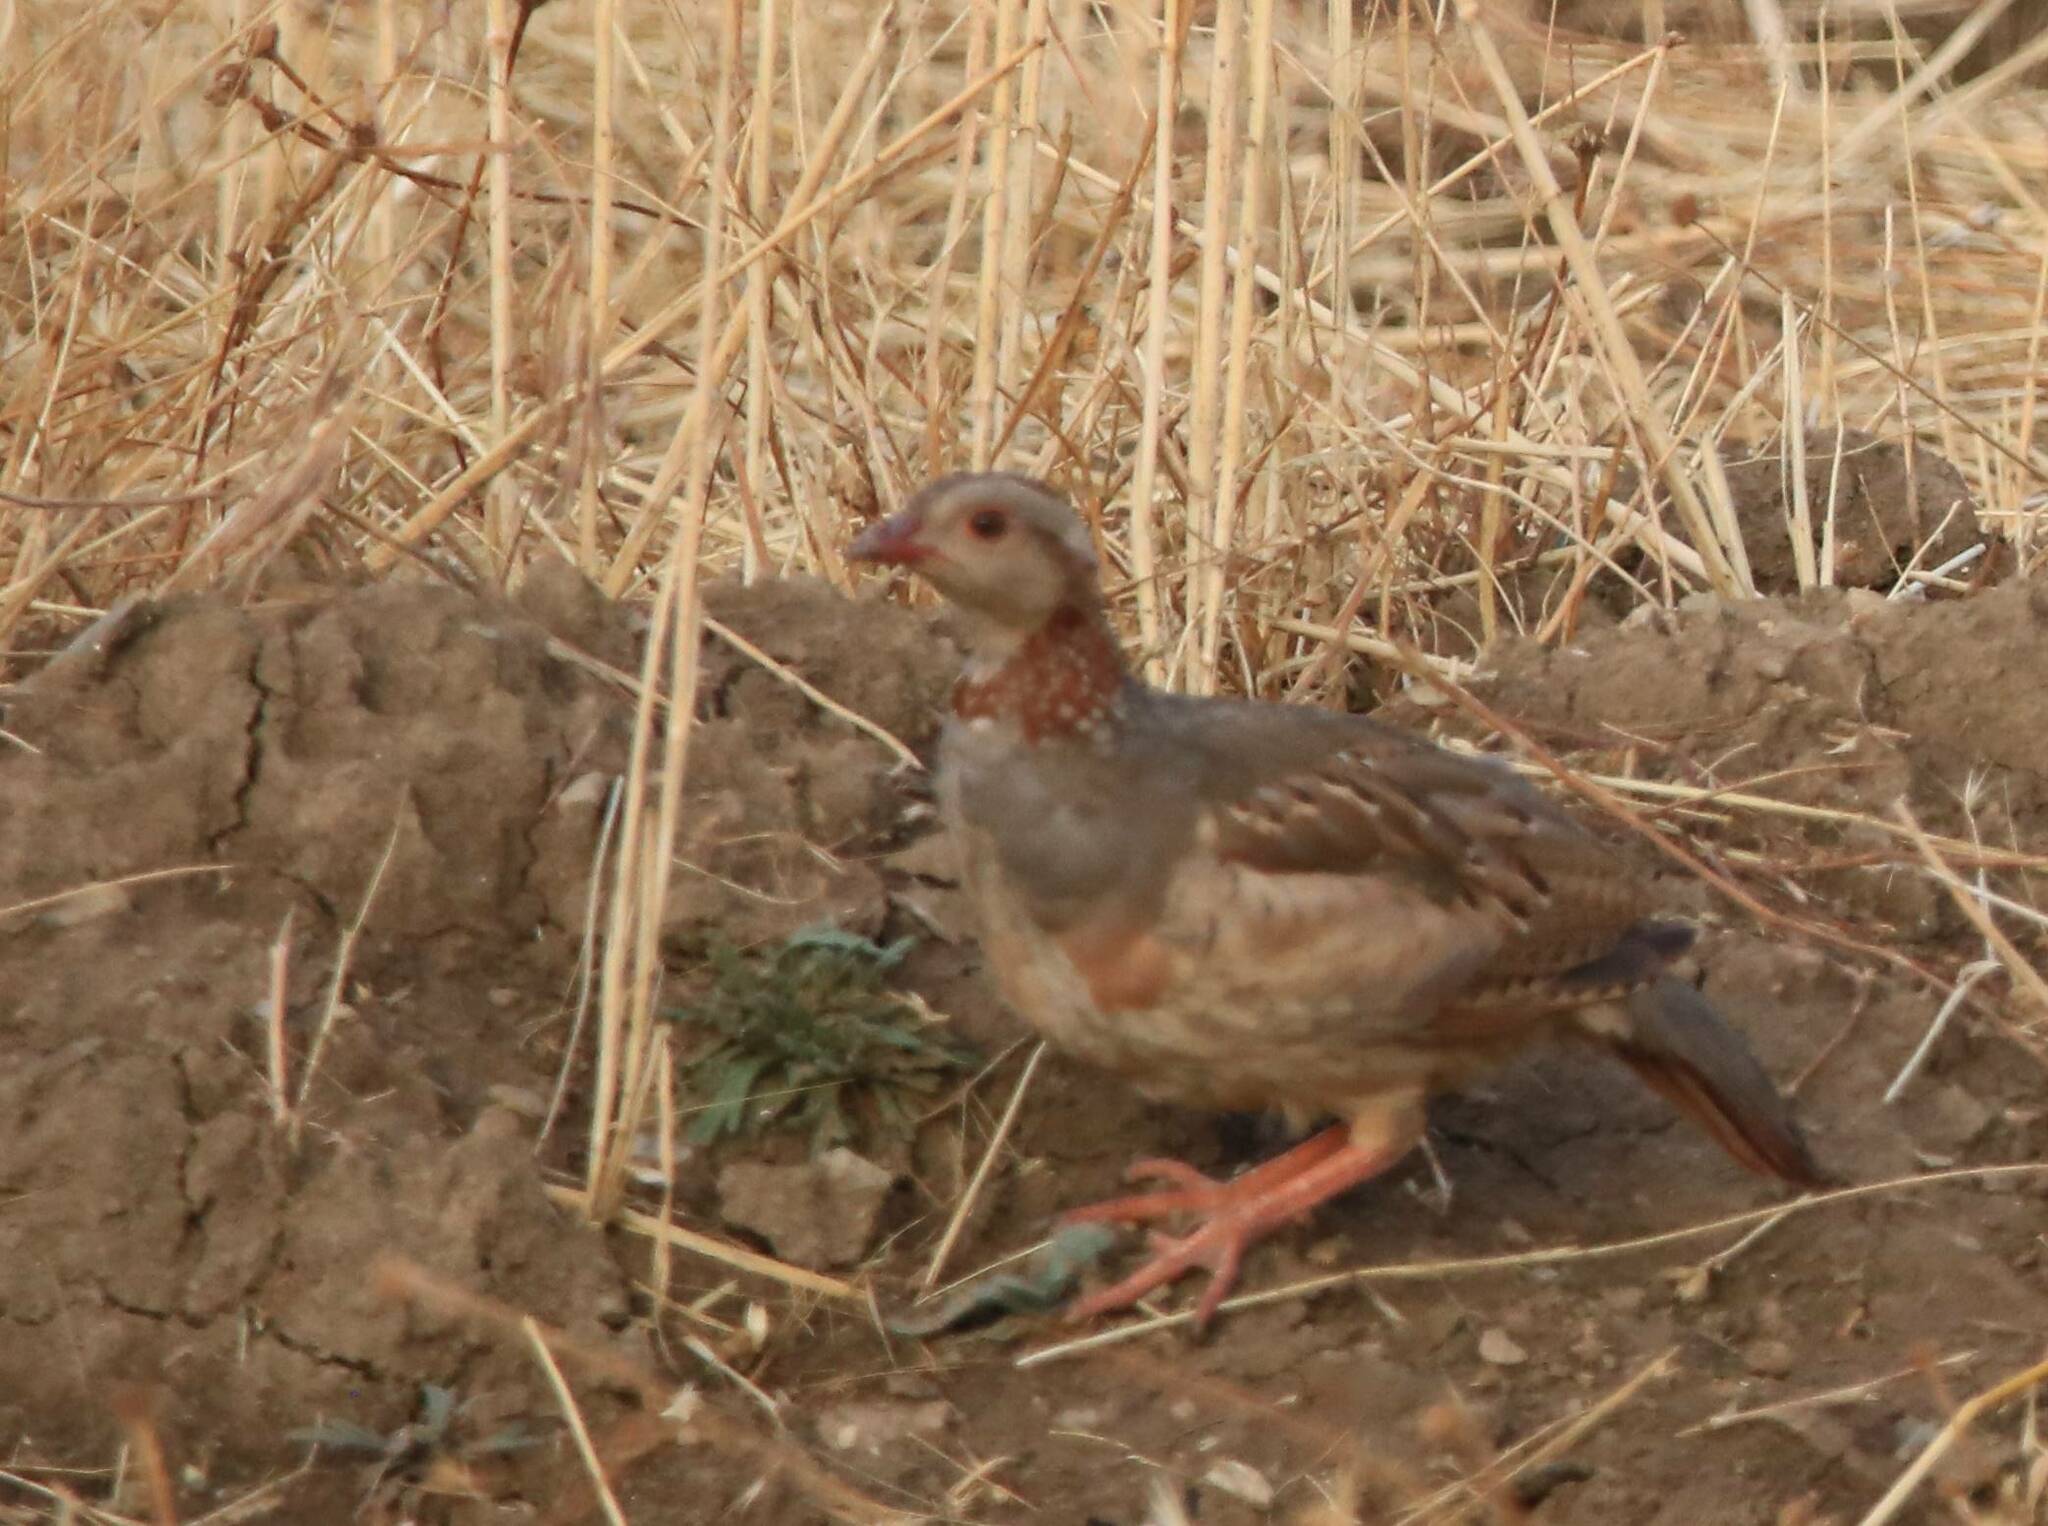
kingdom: Animalia
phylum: Chordata
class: Aves
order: Galliformes
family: Phasianidae
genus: Alectoris
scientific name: Alectoris barbara
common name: Barbary partridge
